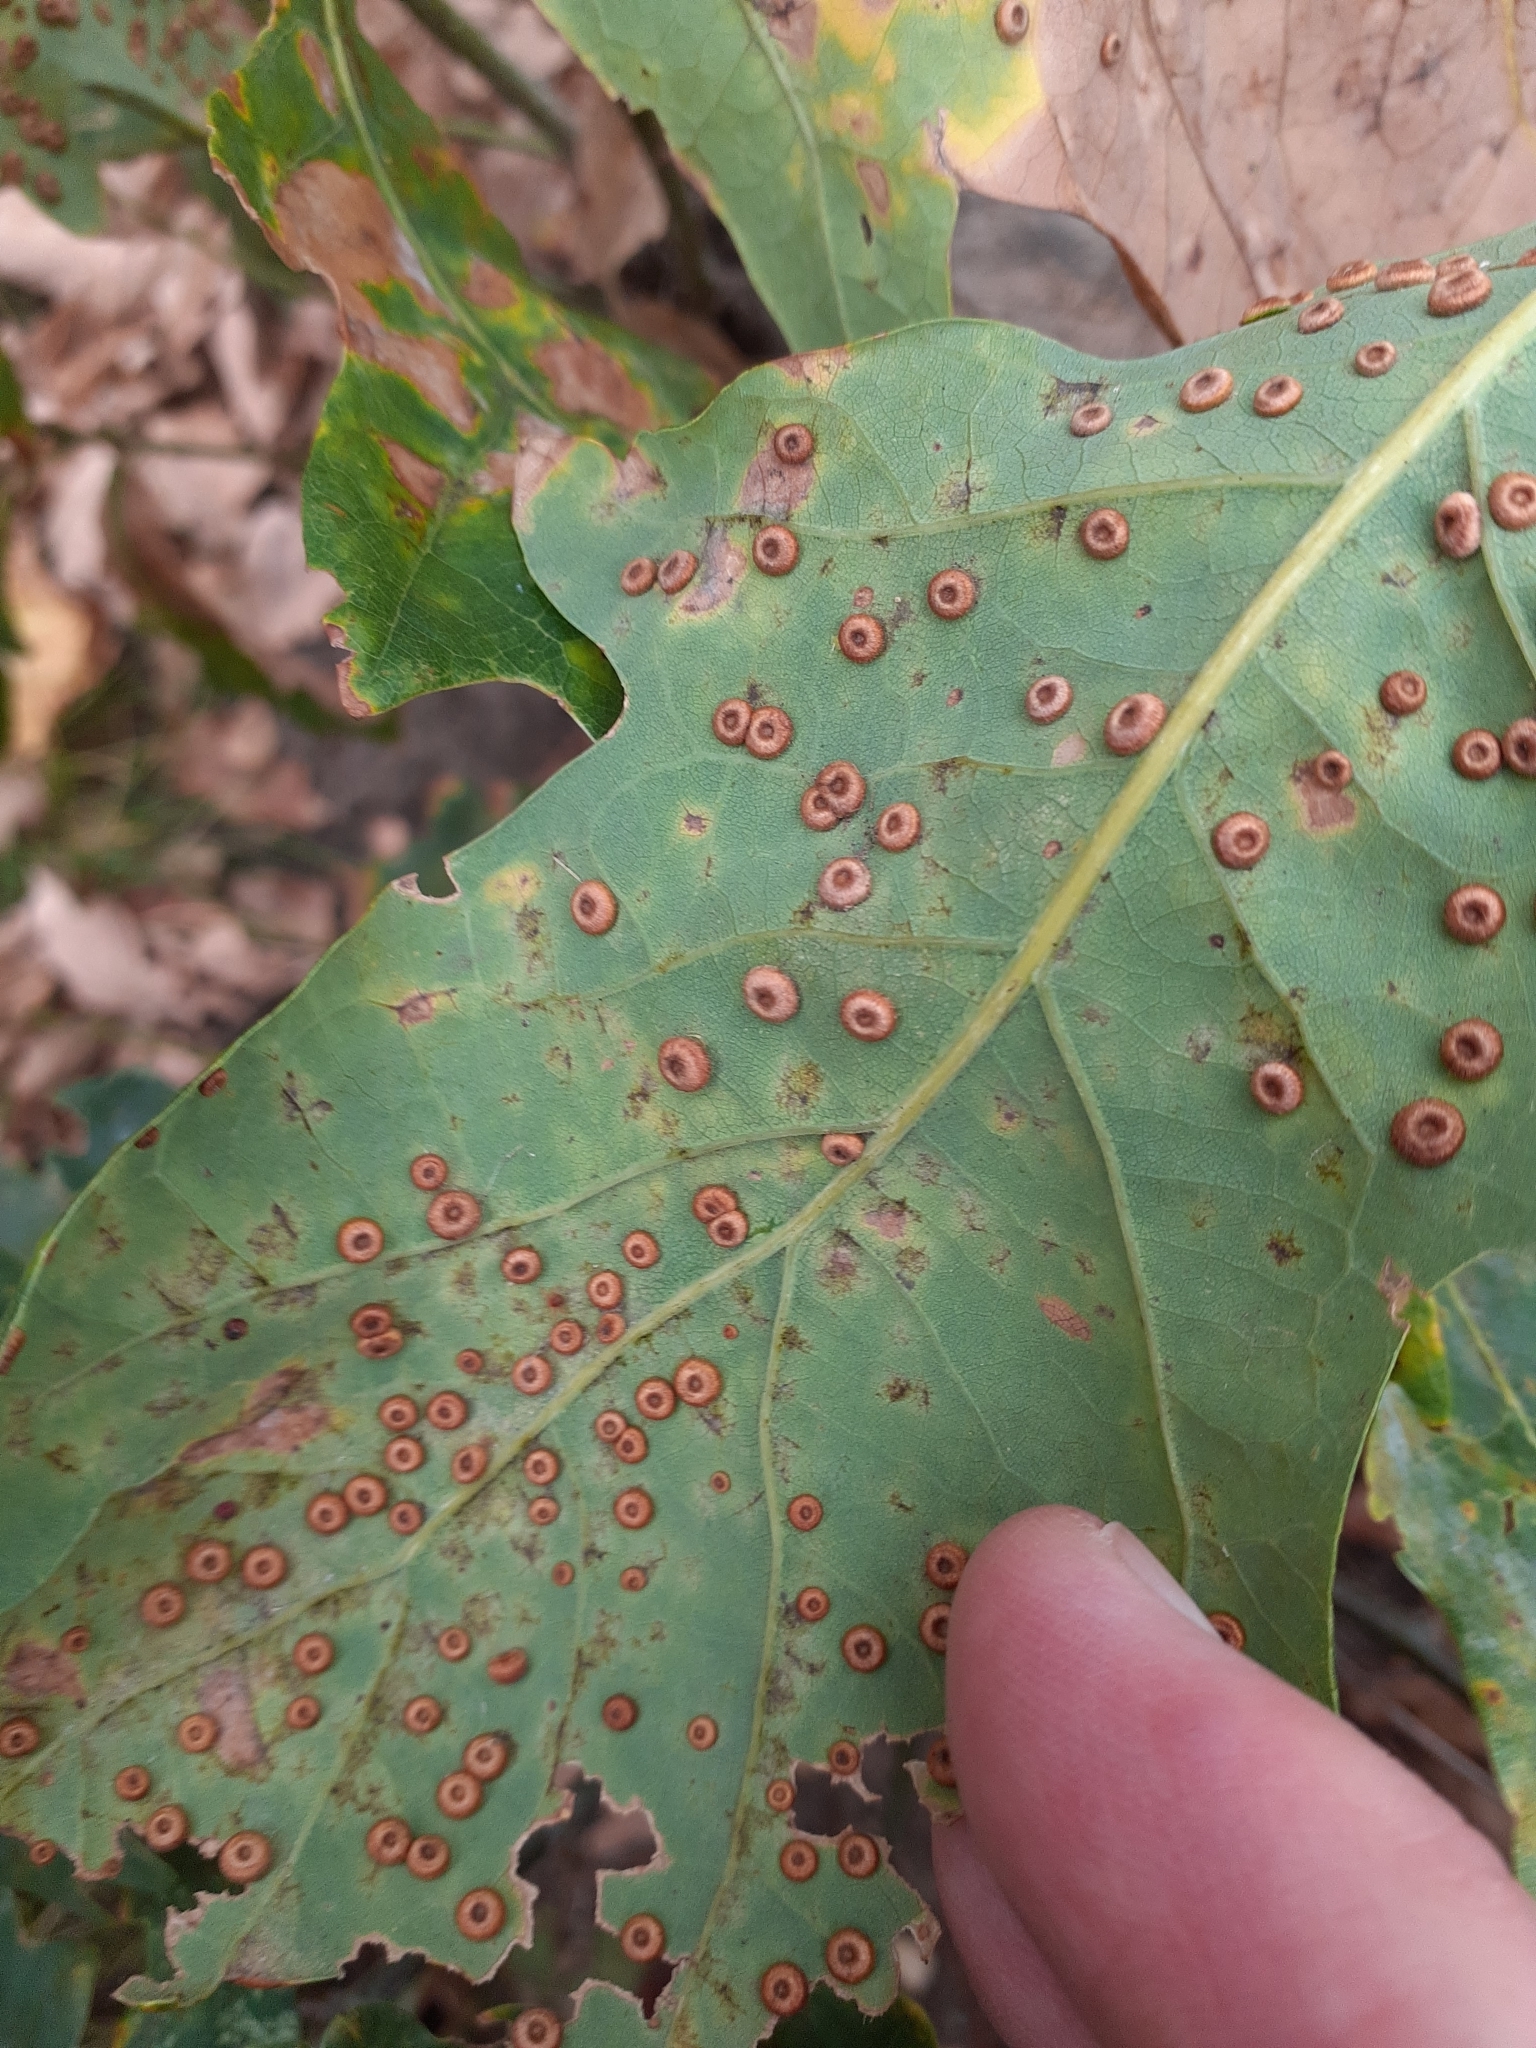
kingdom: Animalia
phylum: Arthropoda
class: Insecta
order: Hymenoptera
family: Cynipidae
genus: Neuroterus
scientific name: Neuroterus numismalis
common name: Silk-button spangle gall
